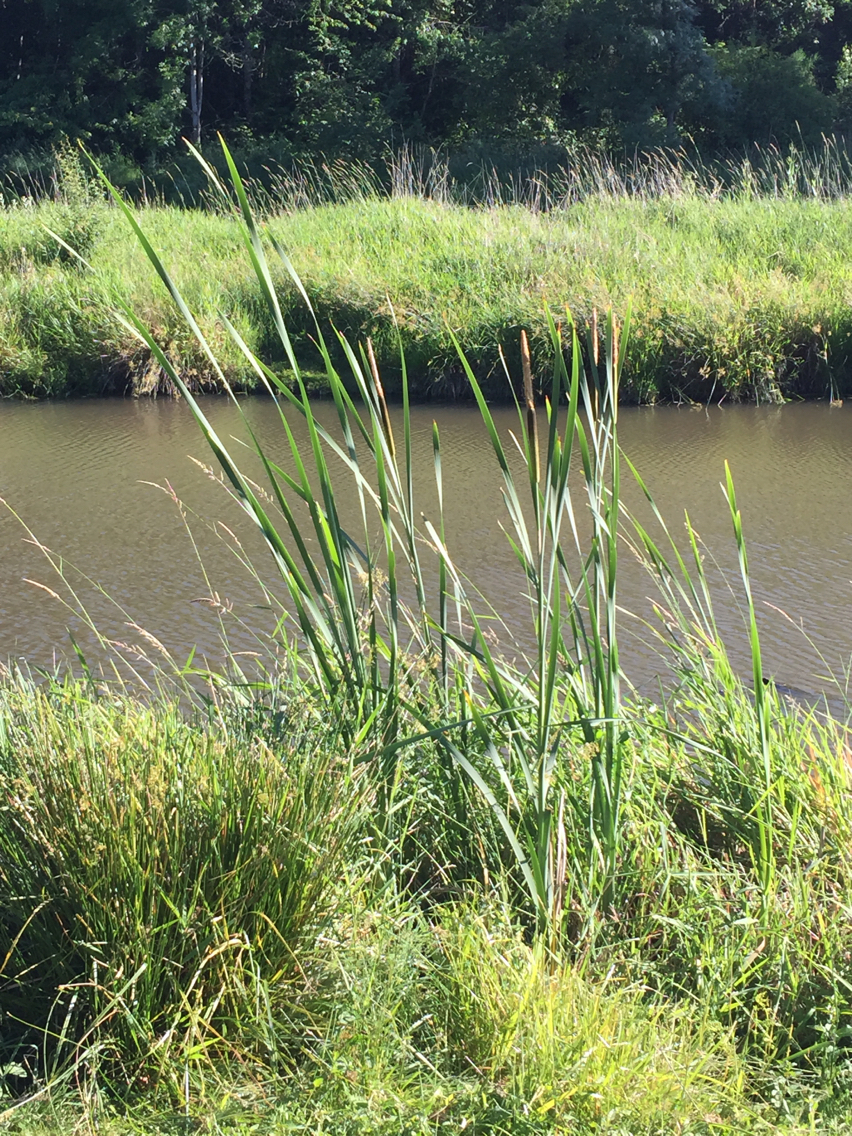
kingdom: Plantae
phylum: Tracheophyta
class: Liliopsida
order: Poales
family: Typhaceae
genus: Typha
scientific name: Typha latifolia
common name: Broadleaf cattail
